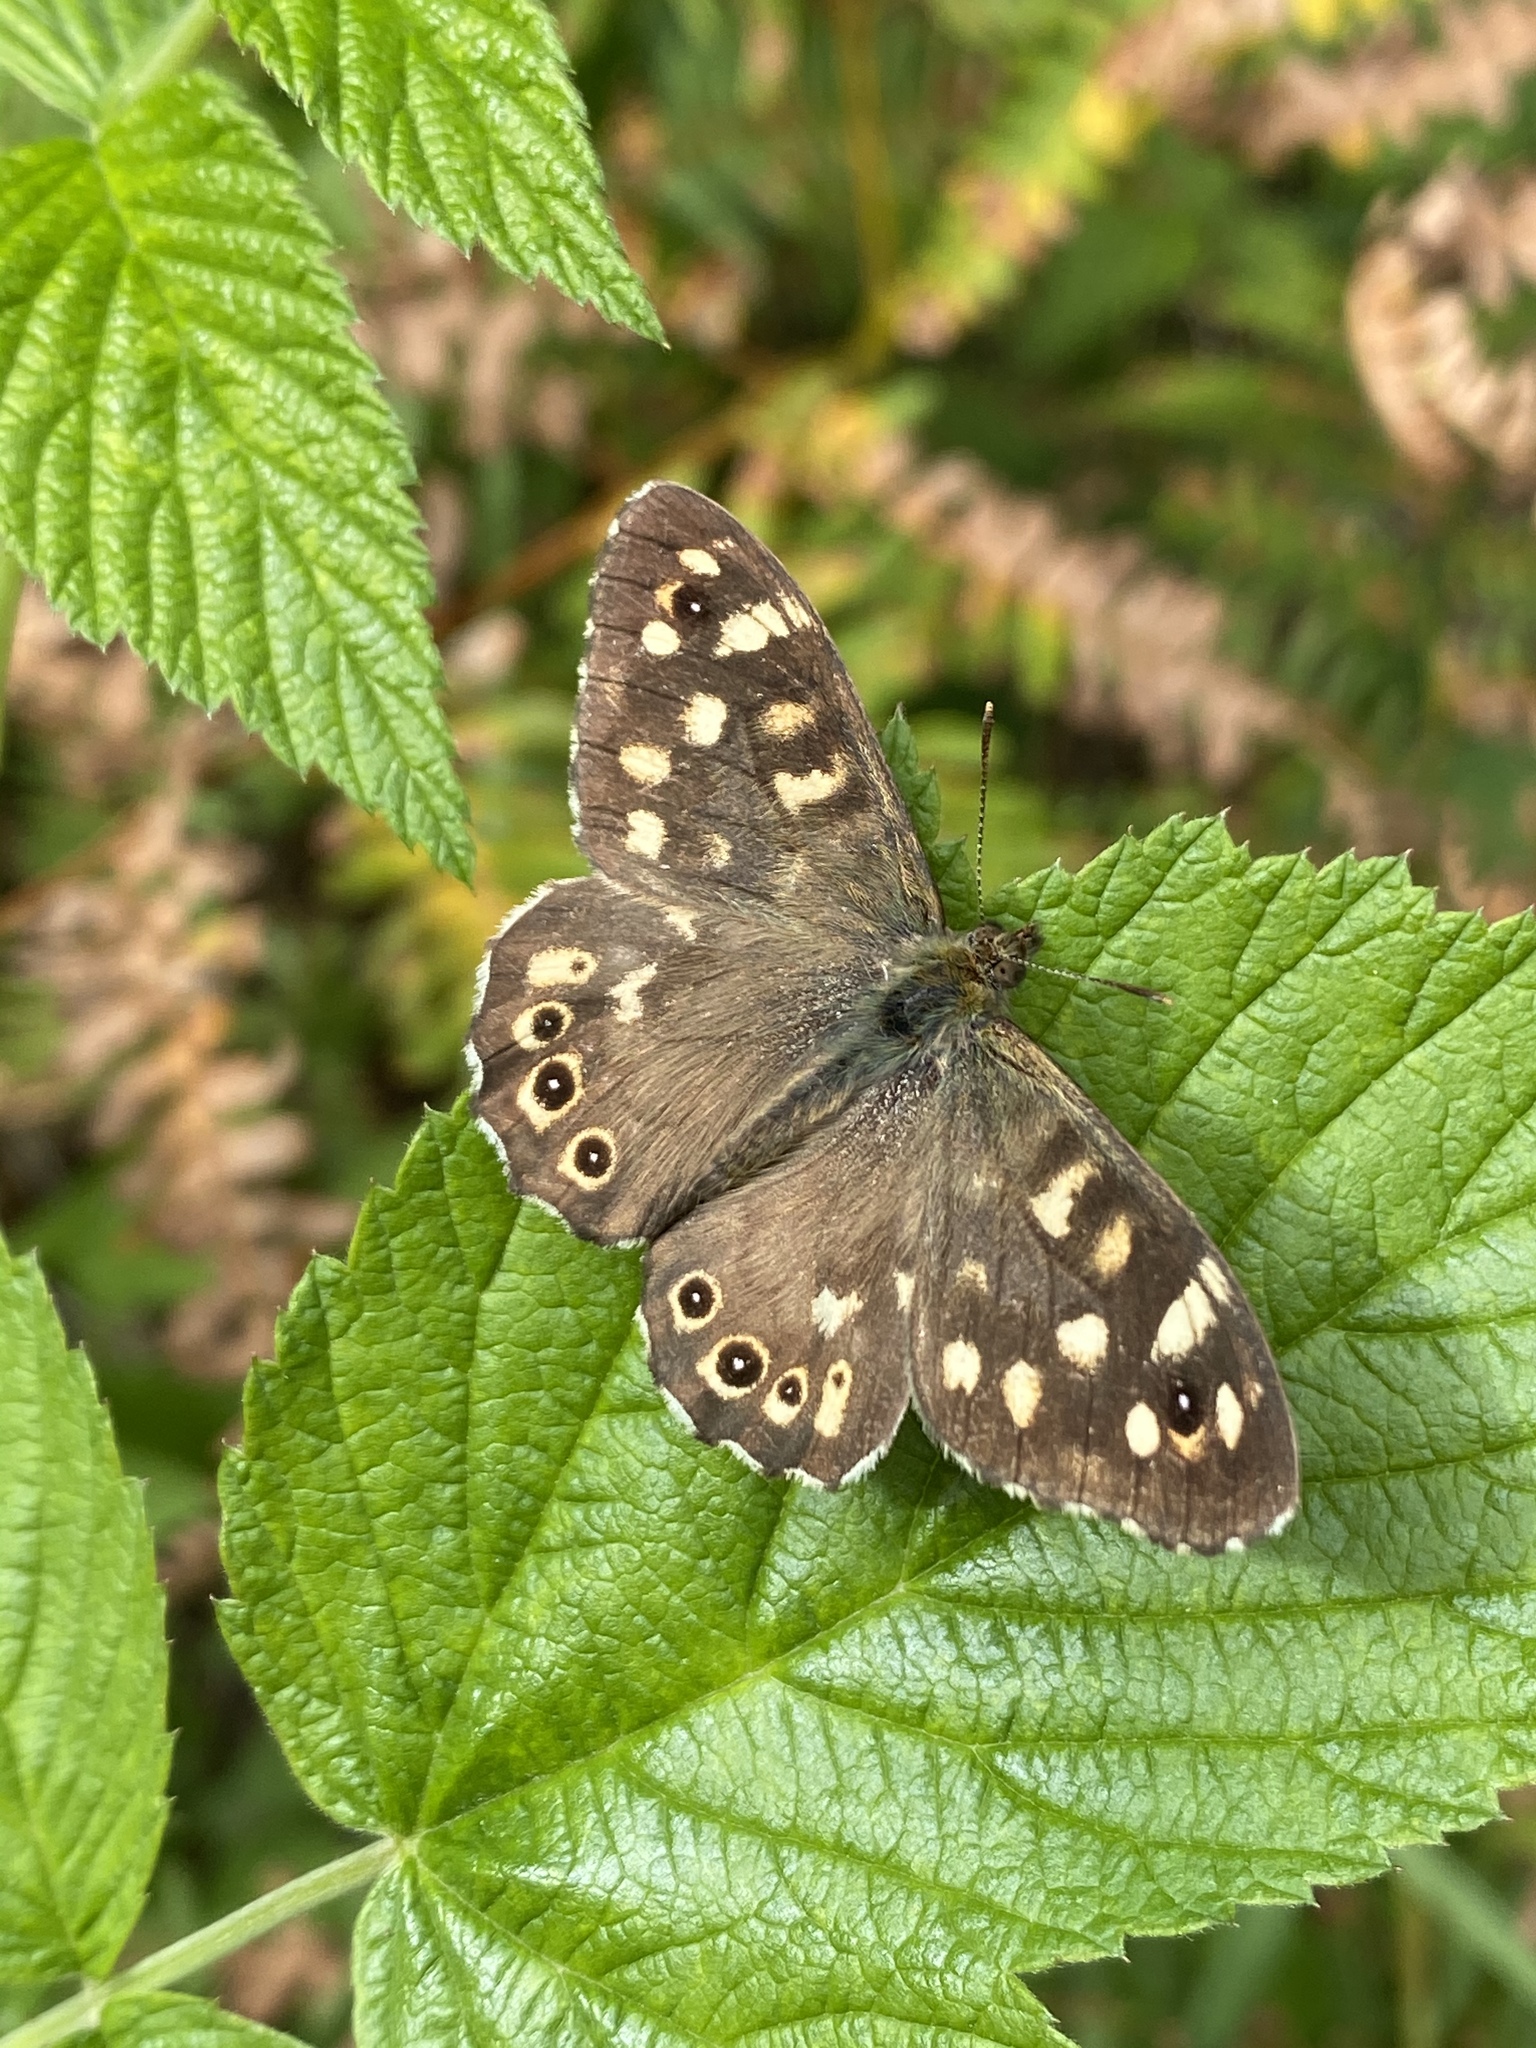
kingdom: Animalia
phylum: Arthropoda
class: Insecta
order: Lepidoptera
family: Nymphalidae
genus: Pararge
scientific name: Pararge aegeria
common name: Speckled wood
